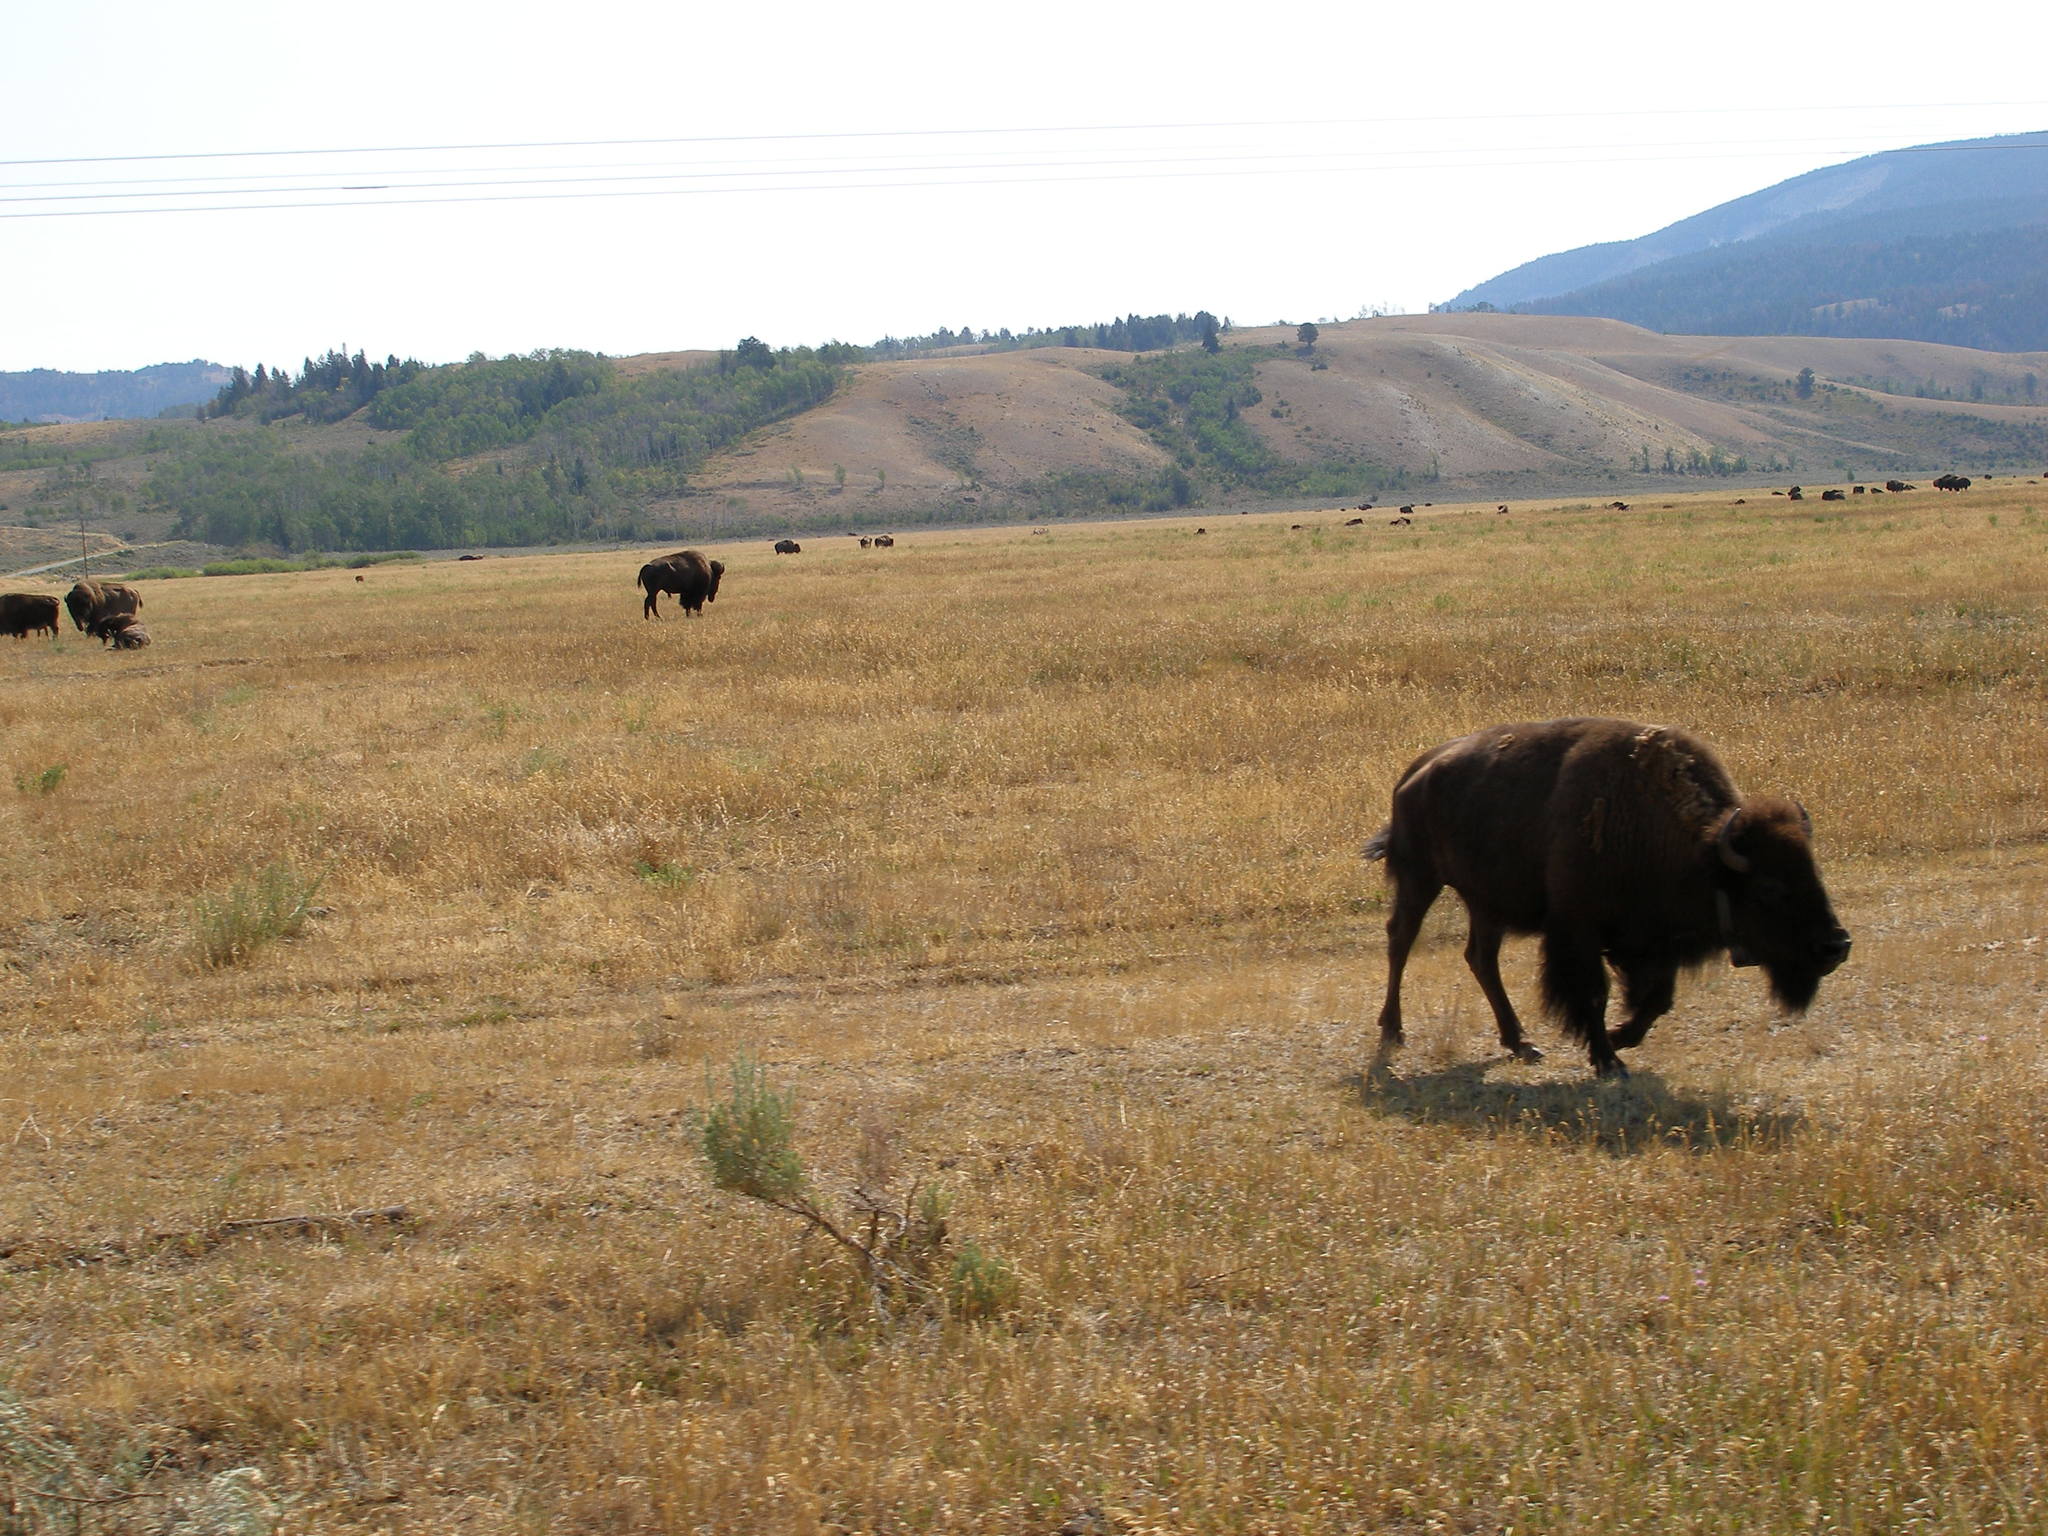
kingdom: Animalia
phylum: Chordata
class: Mammalia
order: Artiodactyla
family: Bovidae
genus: Bison
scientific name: Bison bison
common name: American bison
